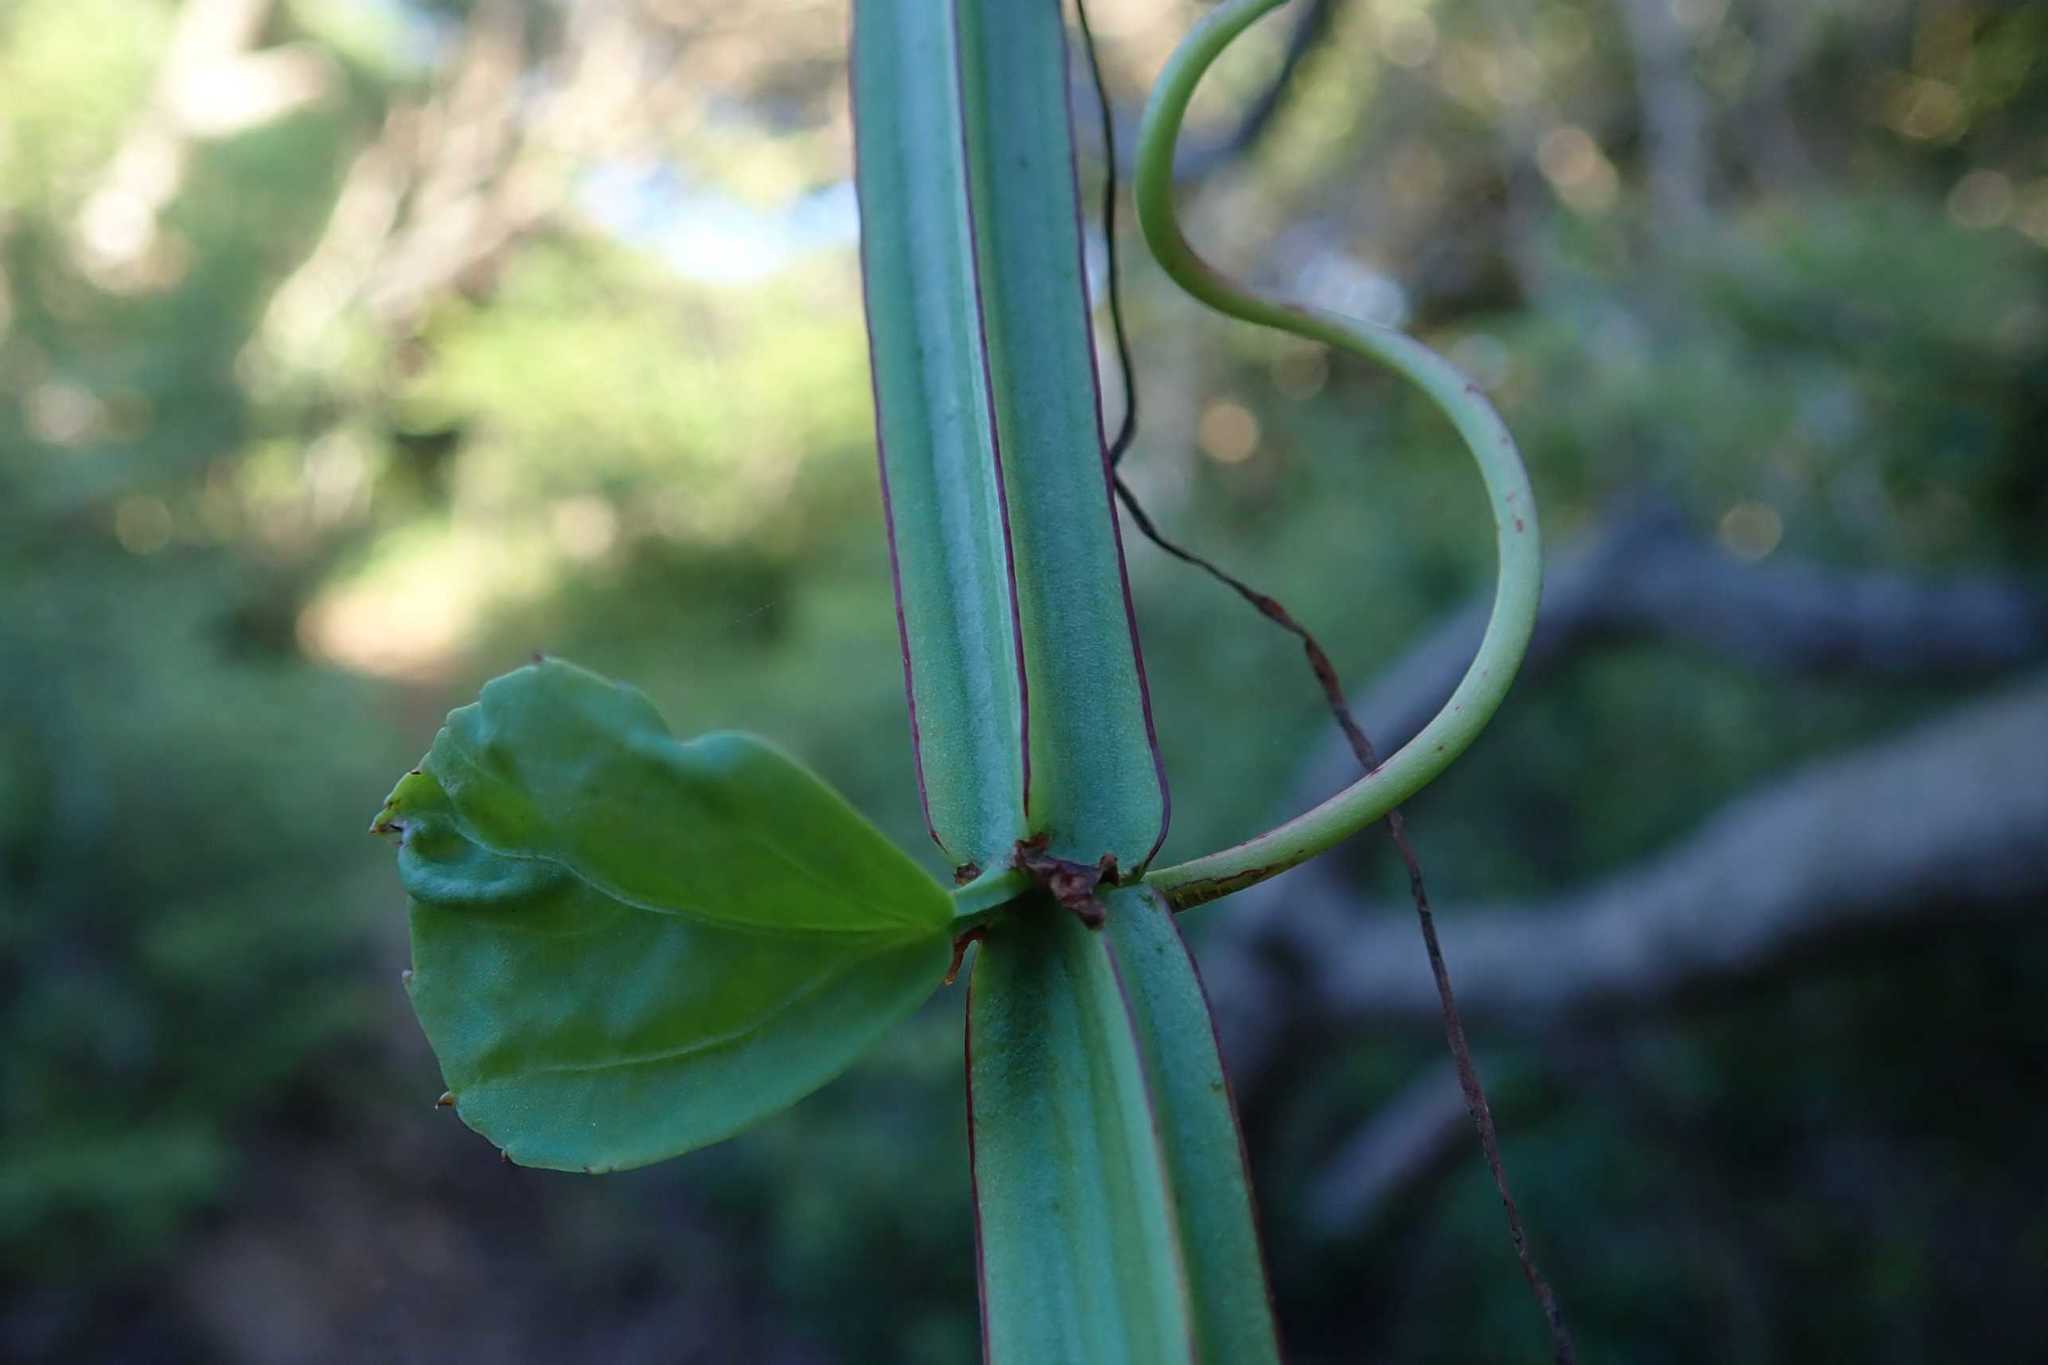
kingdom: Plantae
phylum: Tracheophyta
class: Magnoliopsida
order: Vitales
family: Vitaceae
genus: Cissus
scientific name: Cissus quadrangularis
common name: Veldt-grape
